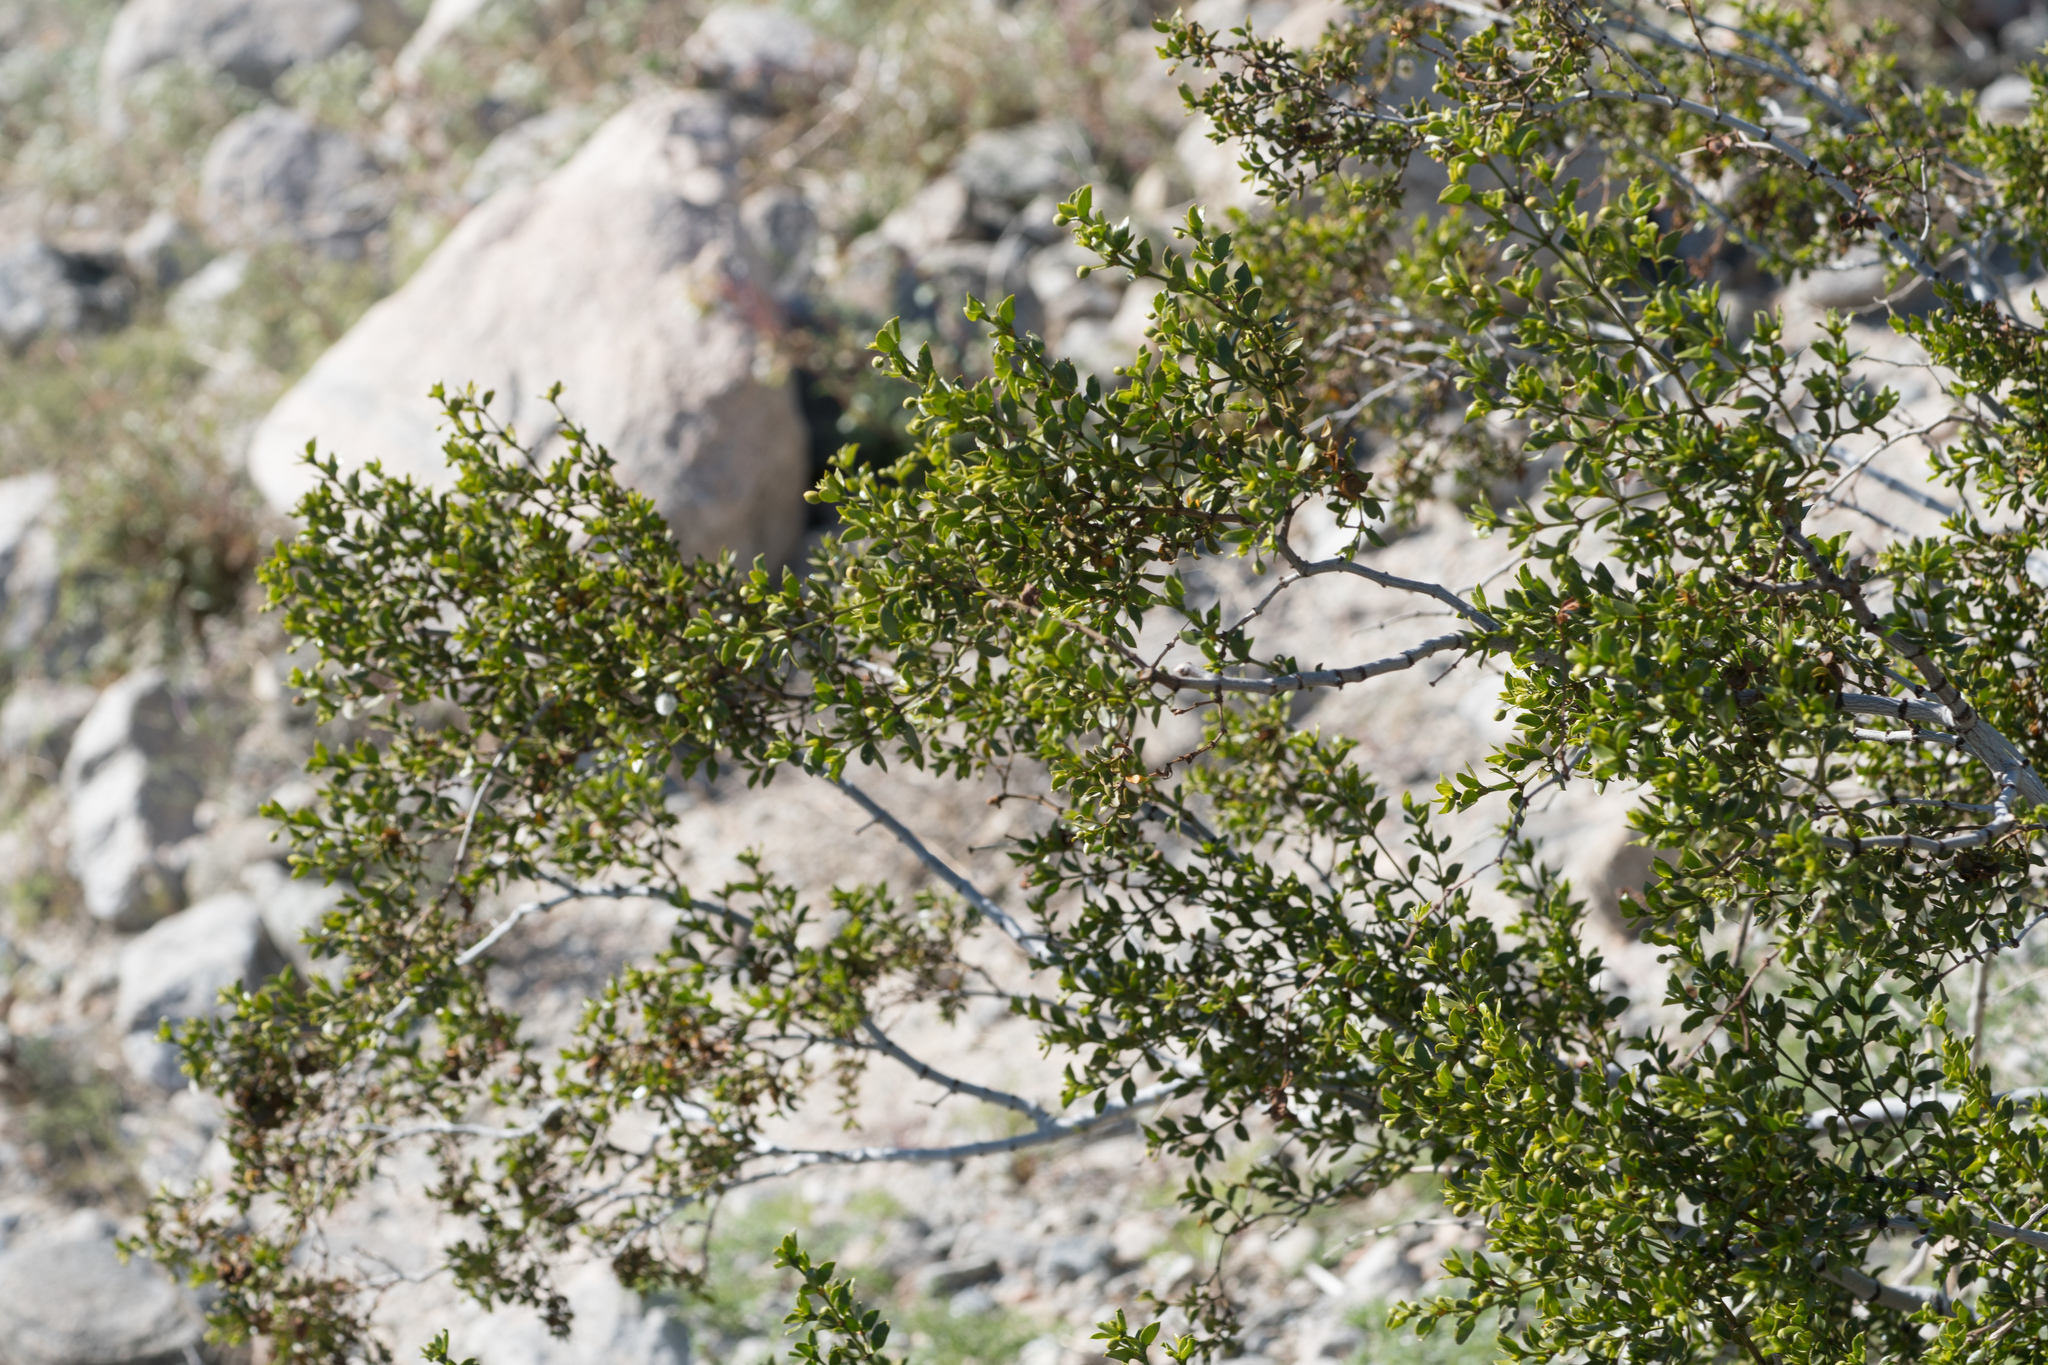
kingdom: Plantae
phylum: Tracheophyta
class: Magnoliopsida
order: Zygophyllales
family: Zygophyllaceae
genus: Larrea
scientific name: Larrea tridentata
